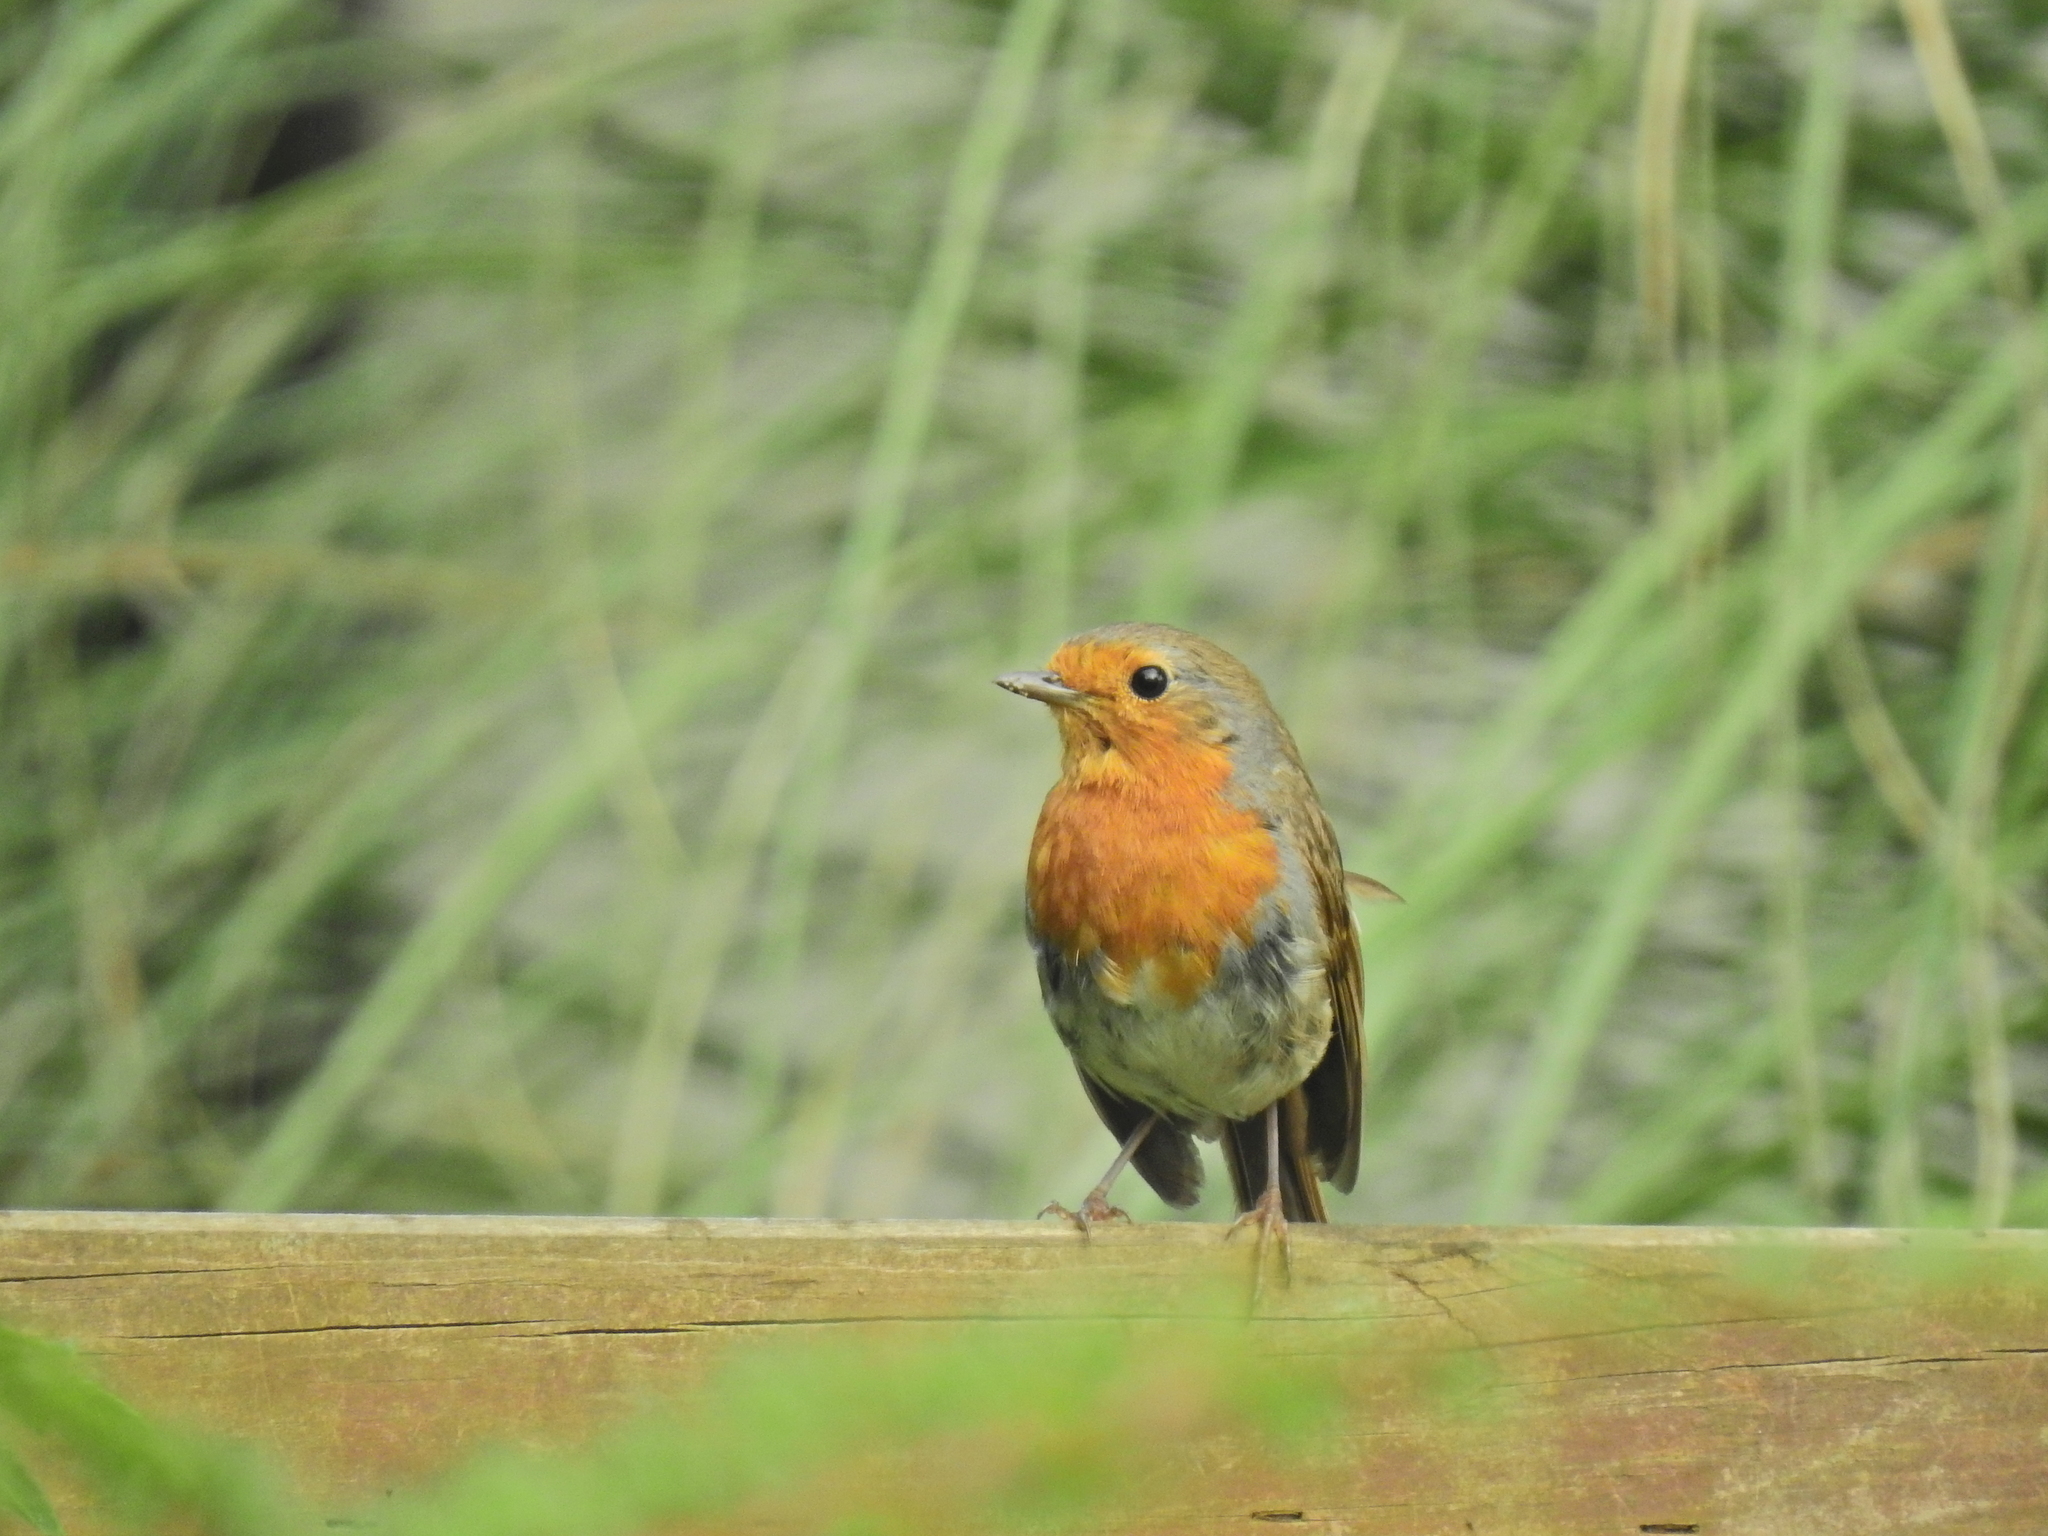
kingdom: Animalia
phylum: Chordata
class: Aves
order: Passeriformes
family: Muscicapidae
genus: Erithacus
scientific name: Erithacus rubecula
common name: European robin
